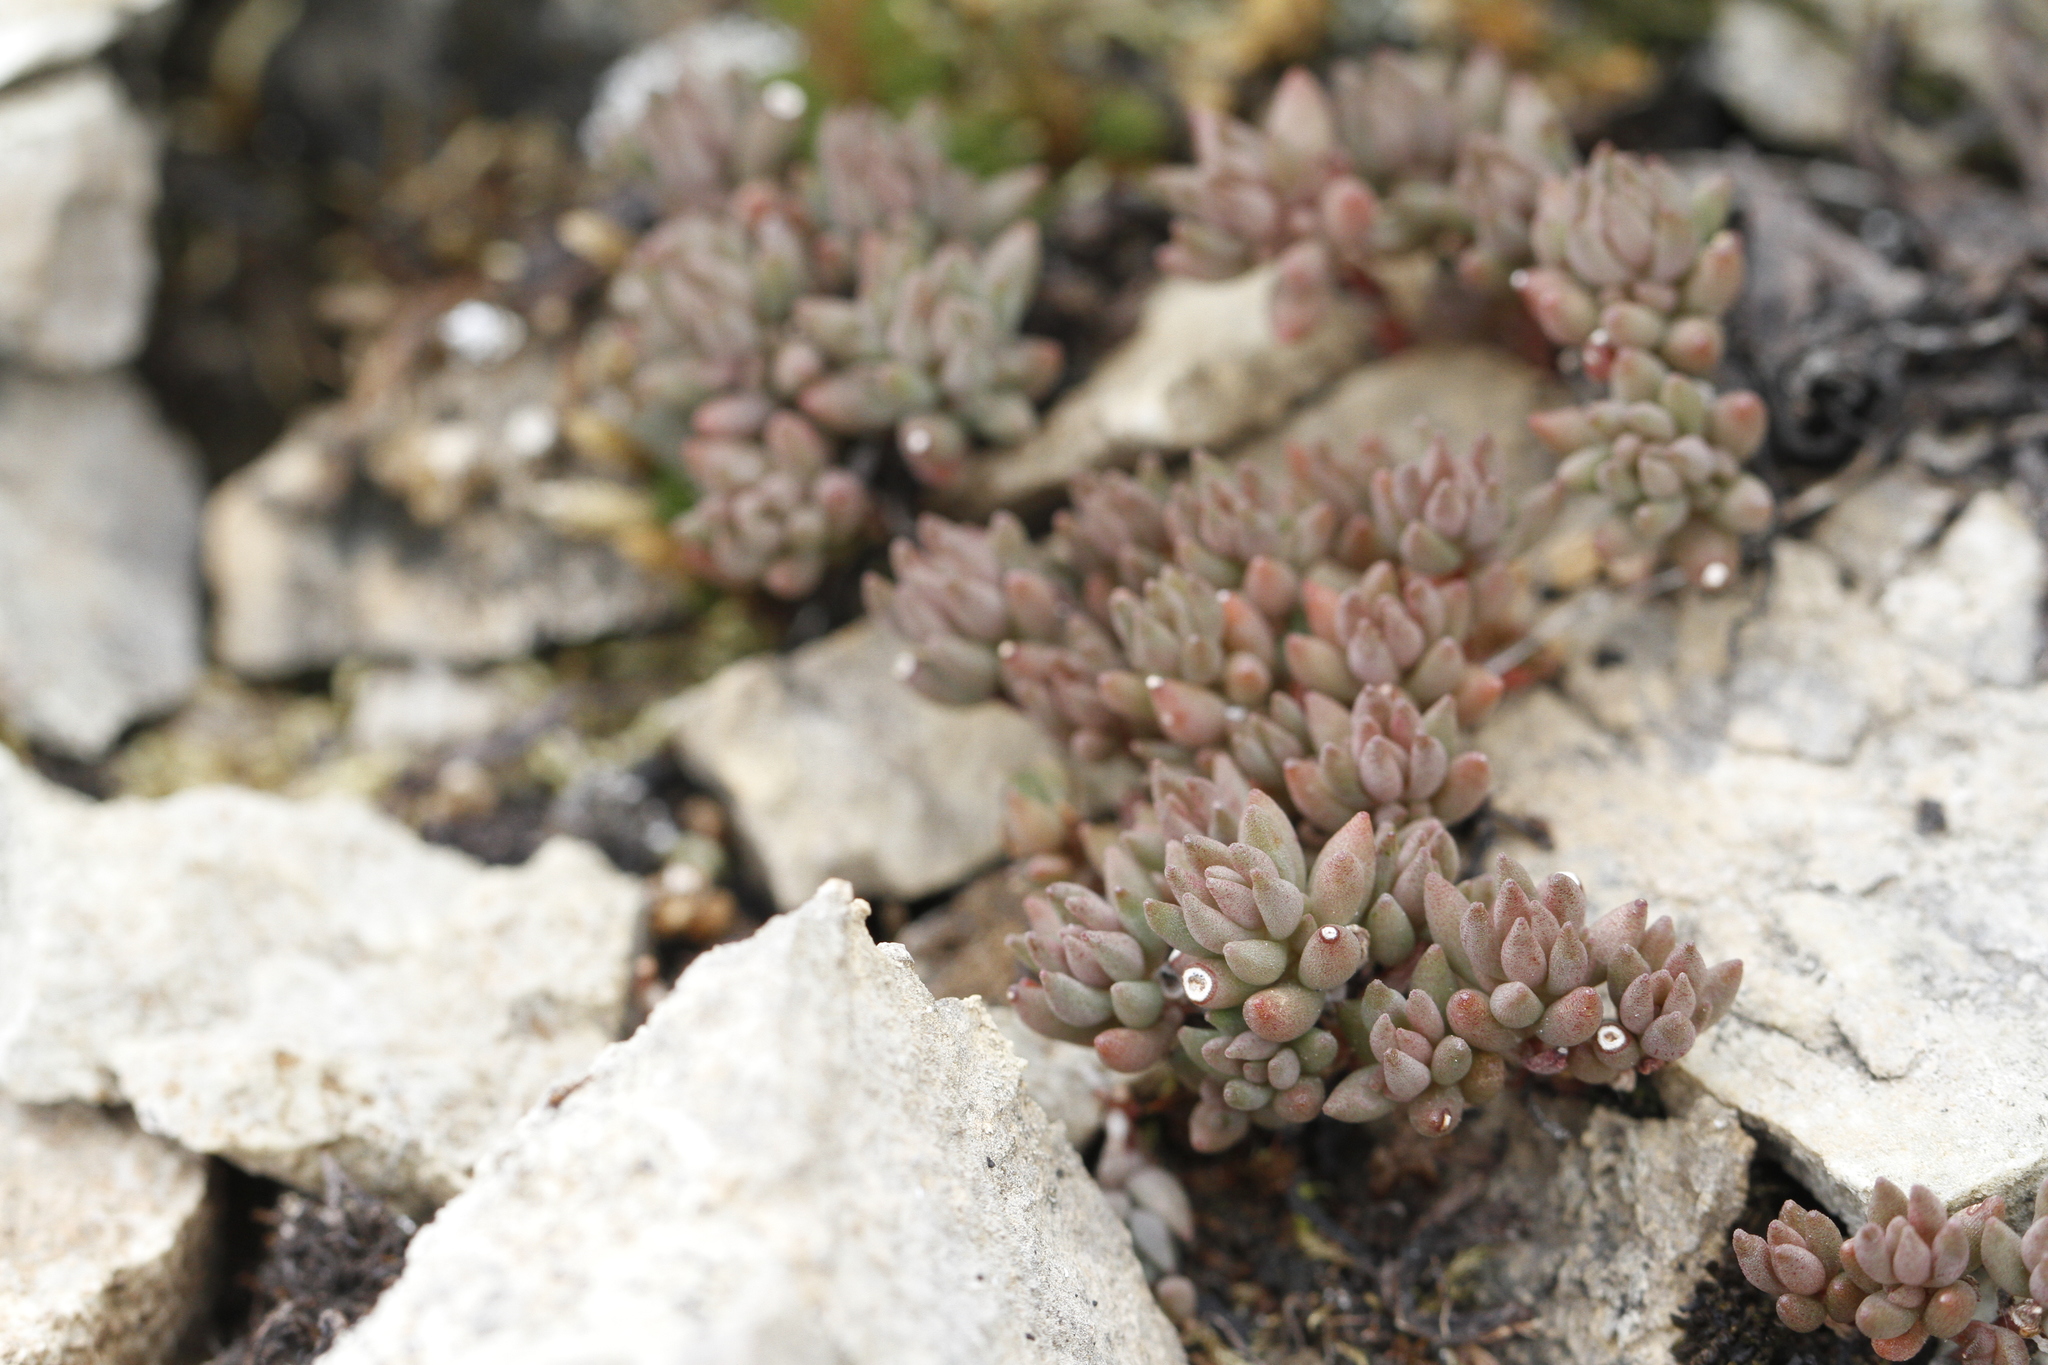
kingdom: Plantae
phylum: Tracheophyta
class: Magnoliopsida
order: Saxifragales
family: Crassulaceae
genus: Sedum
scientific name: Sedum lanceolatum
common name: Common stonecrop
